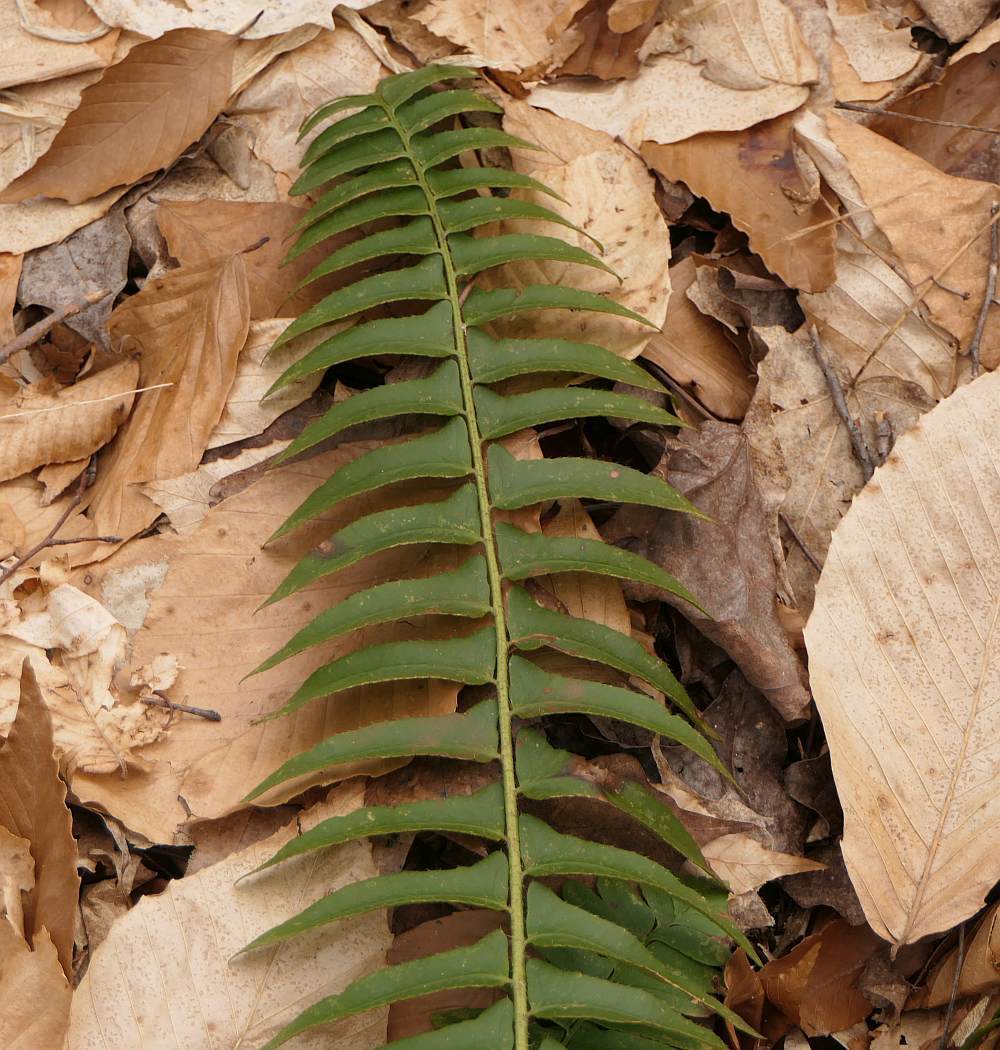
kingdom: Plantae
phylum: Tracheophyta
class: Polypodiopsida
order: Polypodiales
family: Dryopteridaceae
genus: Polystichum
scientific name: Polystichum acrostichoides
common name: Christmas fern
